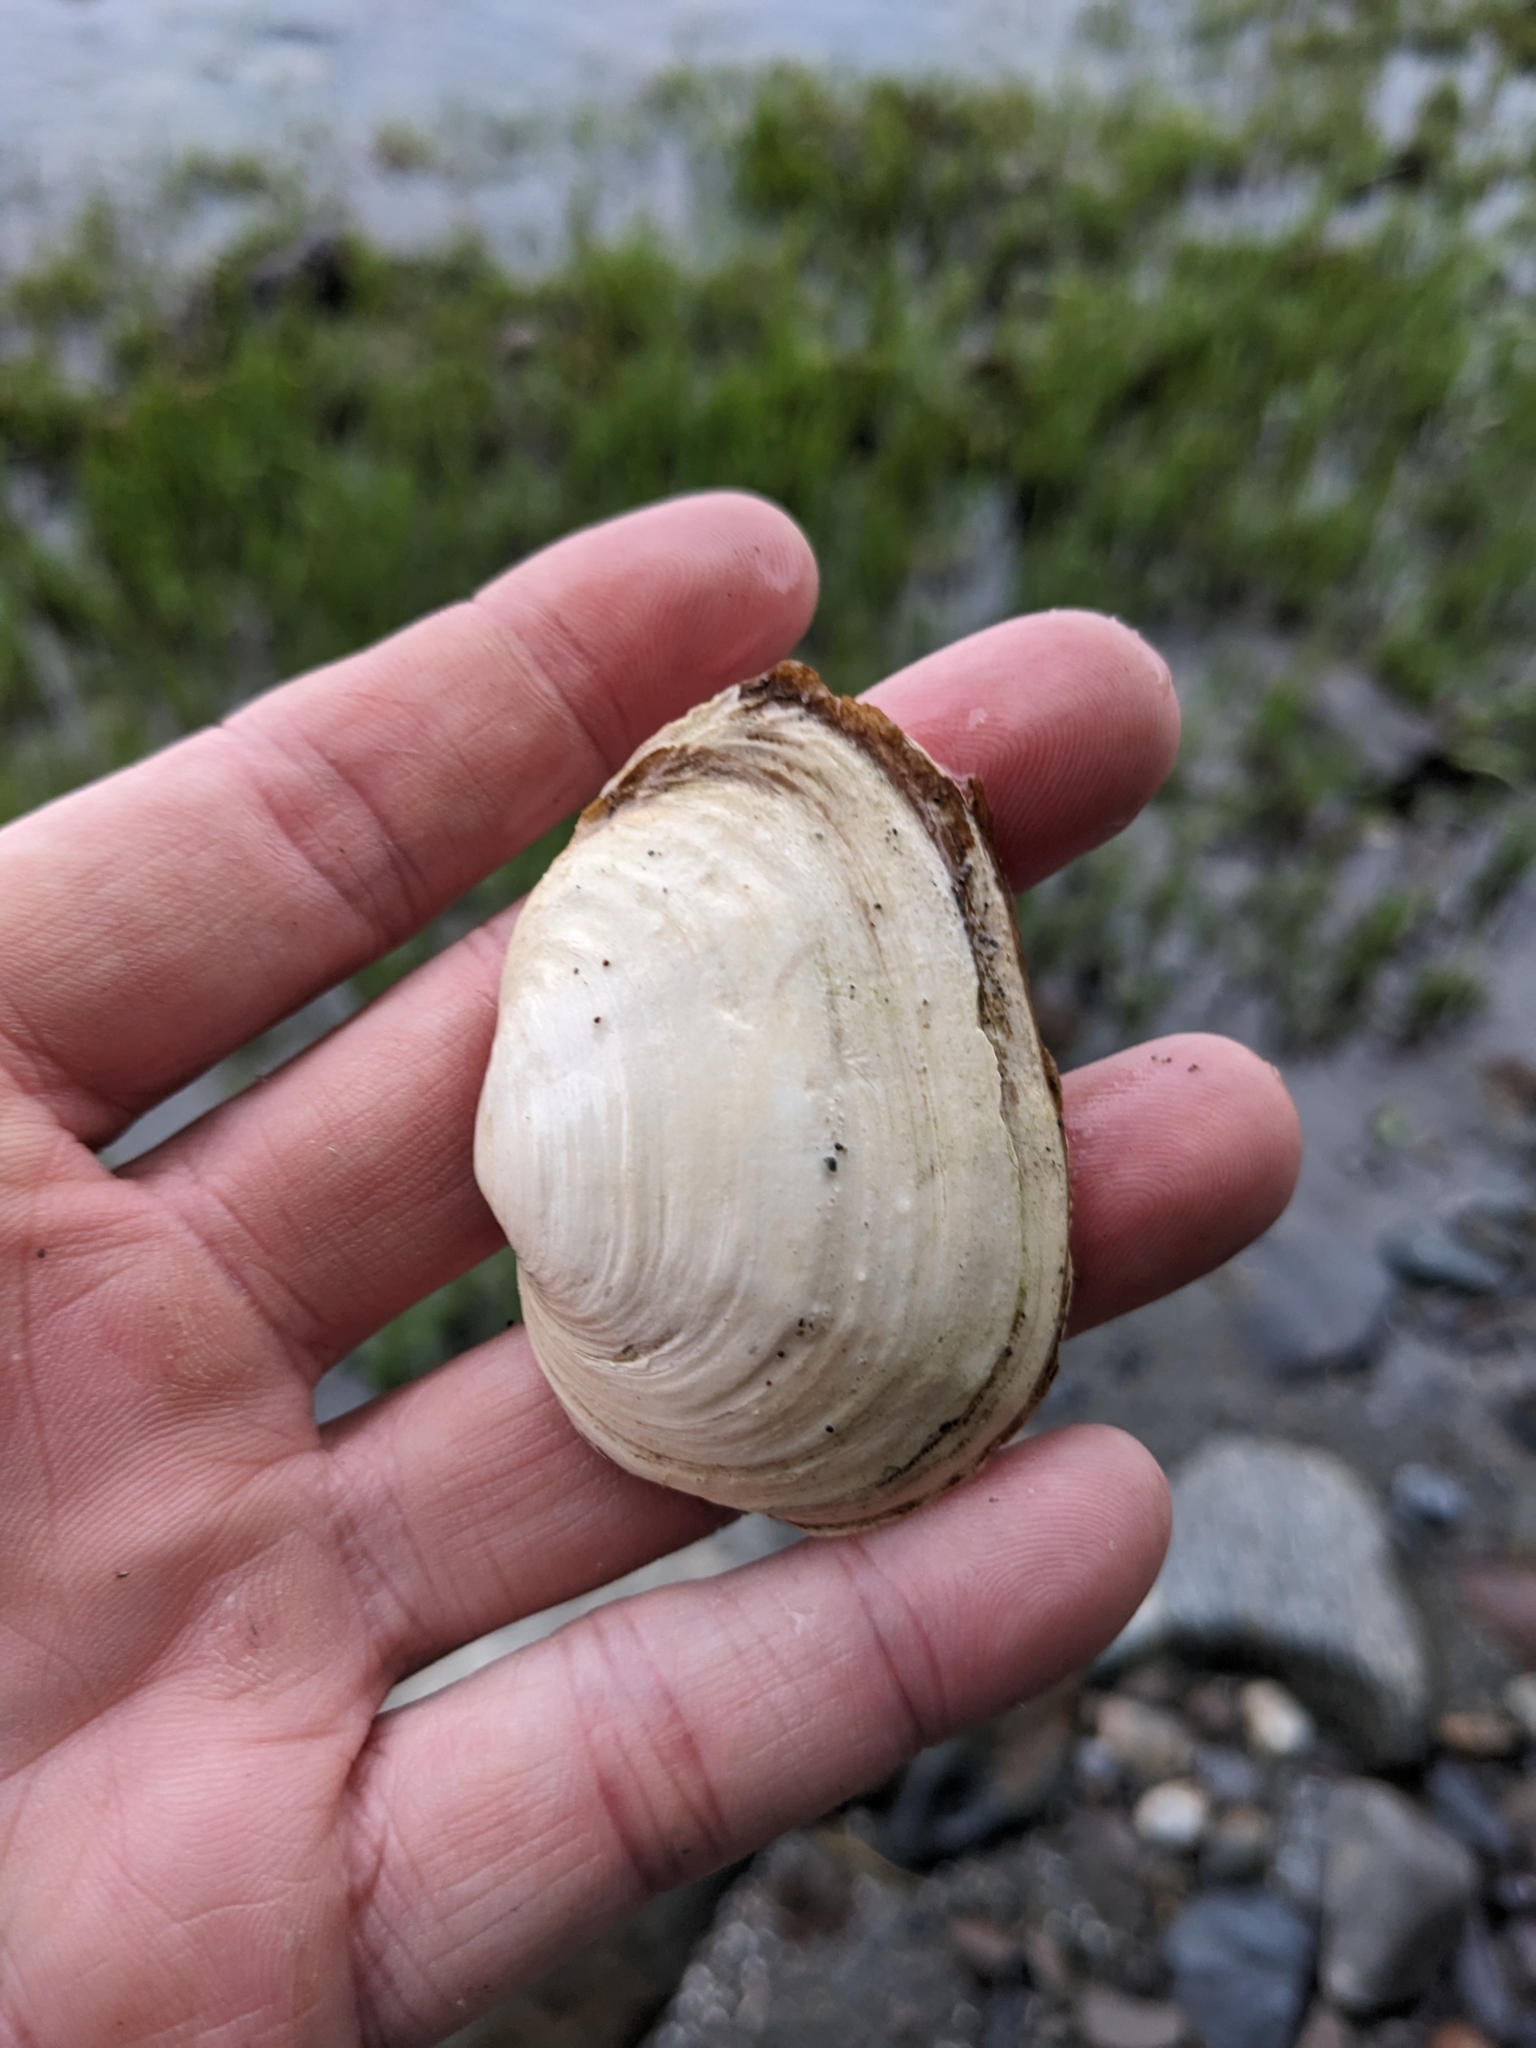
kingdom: Animalia
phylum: Mollusca
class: Bivalvia
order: Myida
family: Myidae
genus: Mya
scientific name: Mya arenaria
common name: Soft-shelled clam
